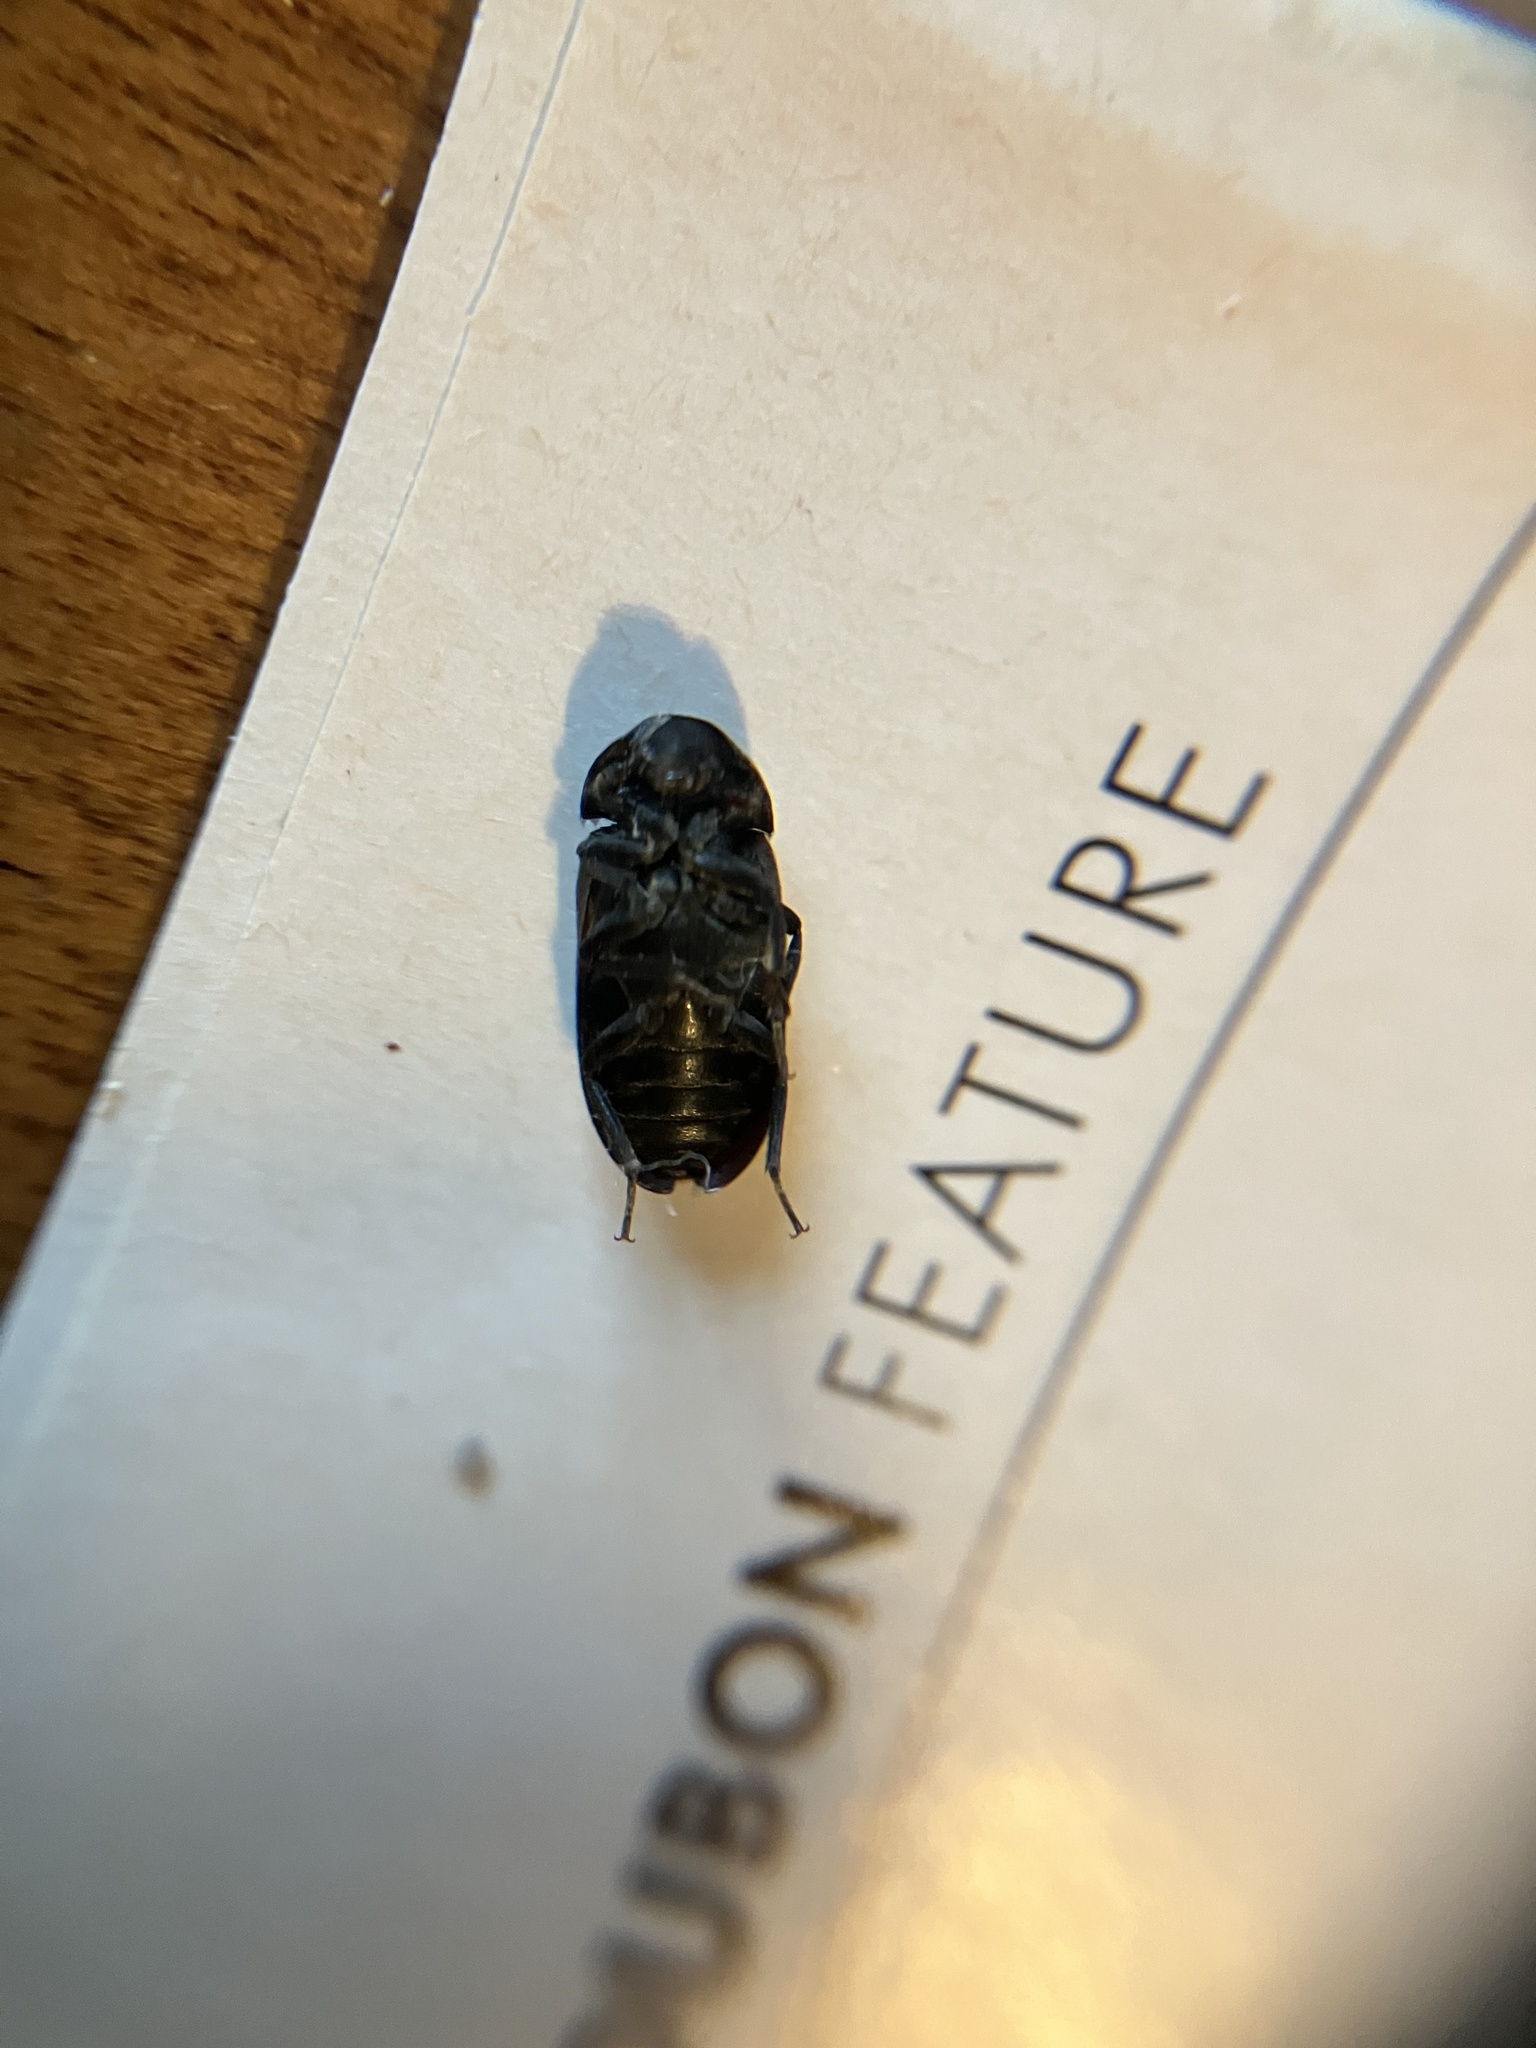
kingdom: Animalia
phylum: Arthropoda
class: Insecta
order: Coleoptera
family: Dermestidae
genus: Dermestes
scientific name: Dermestes lardarius
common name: Larder beetle
